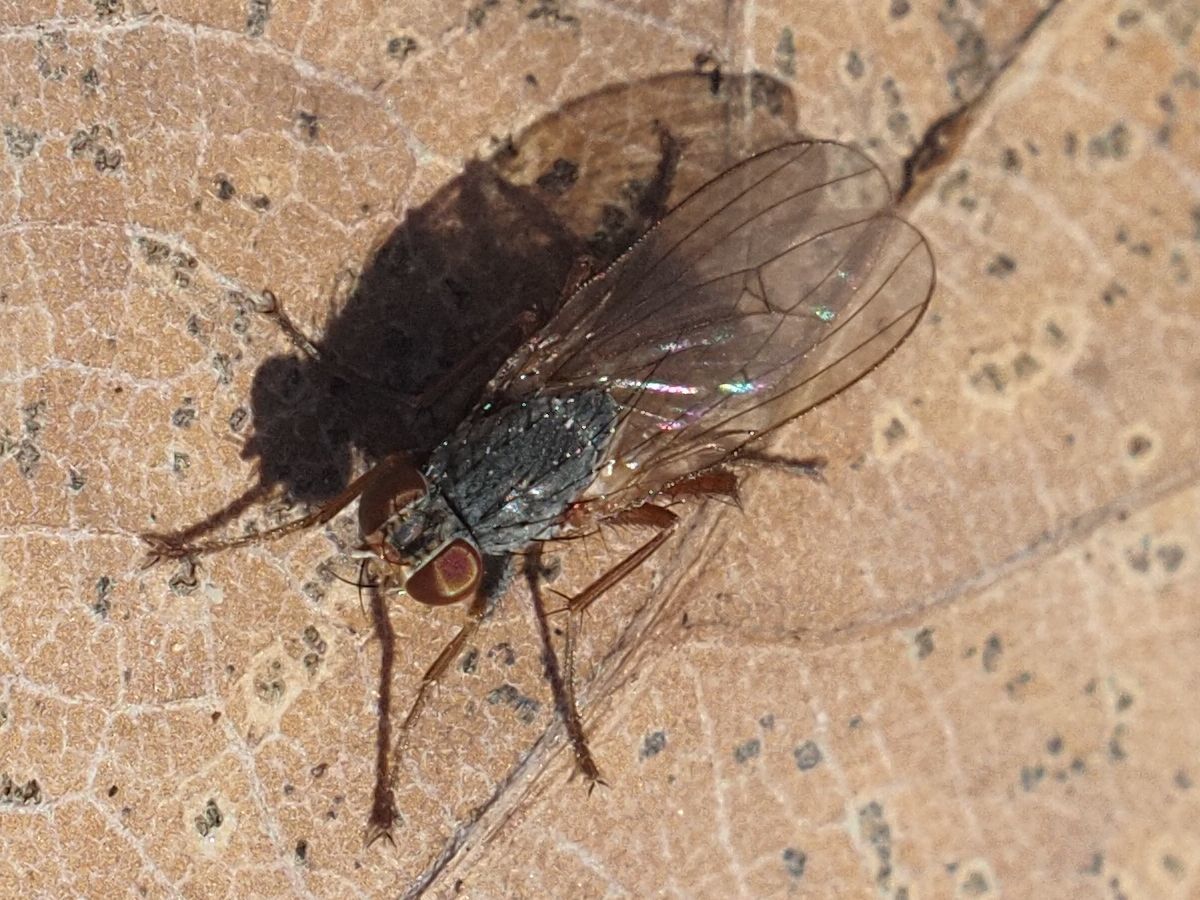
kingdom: Animalia
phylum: Arthropoda
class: Insecta
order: Diptera
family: Muscidae
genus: Lispocephala
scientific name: Lispocephala brachialis
